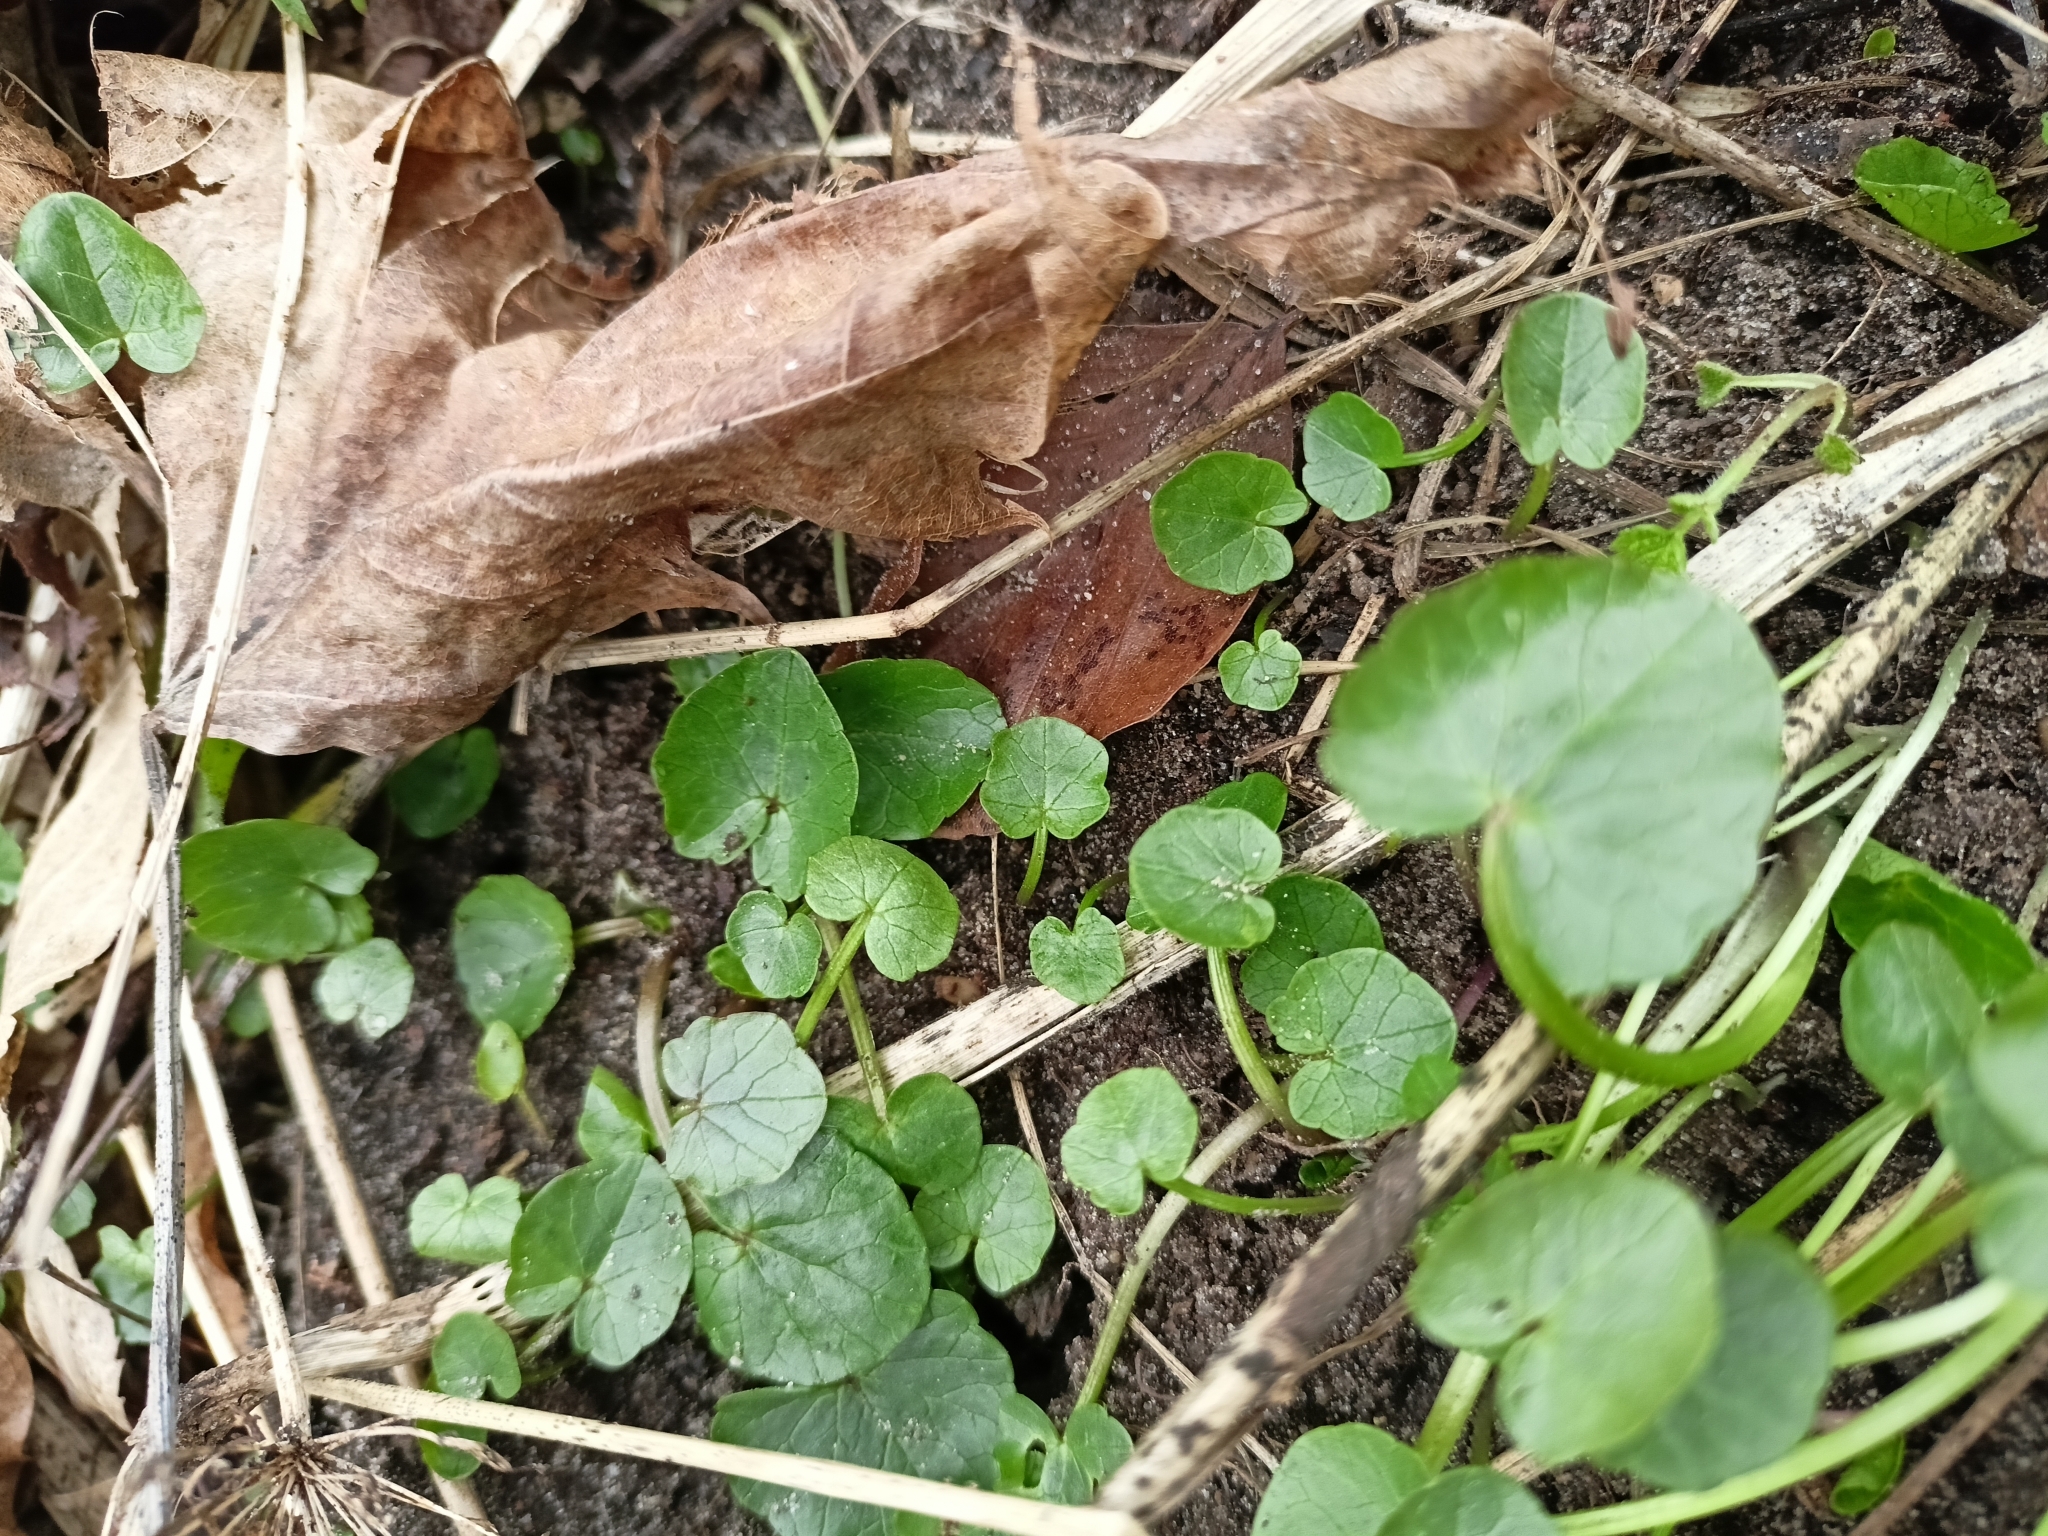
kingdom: Plantae
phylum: Tracheophyta
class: Magnoliopsida
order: Ranunculales
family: Ranunculaceae
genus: Ficaria
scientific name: Ficaria verna
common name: Lesser celandine
